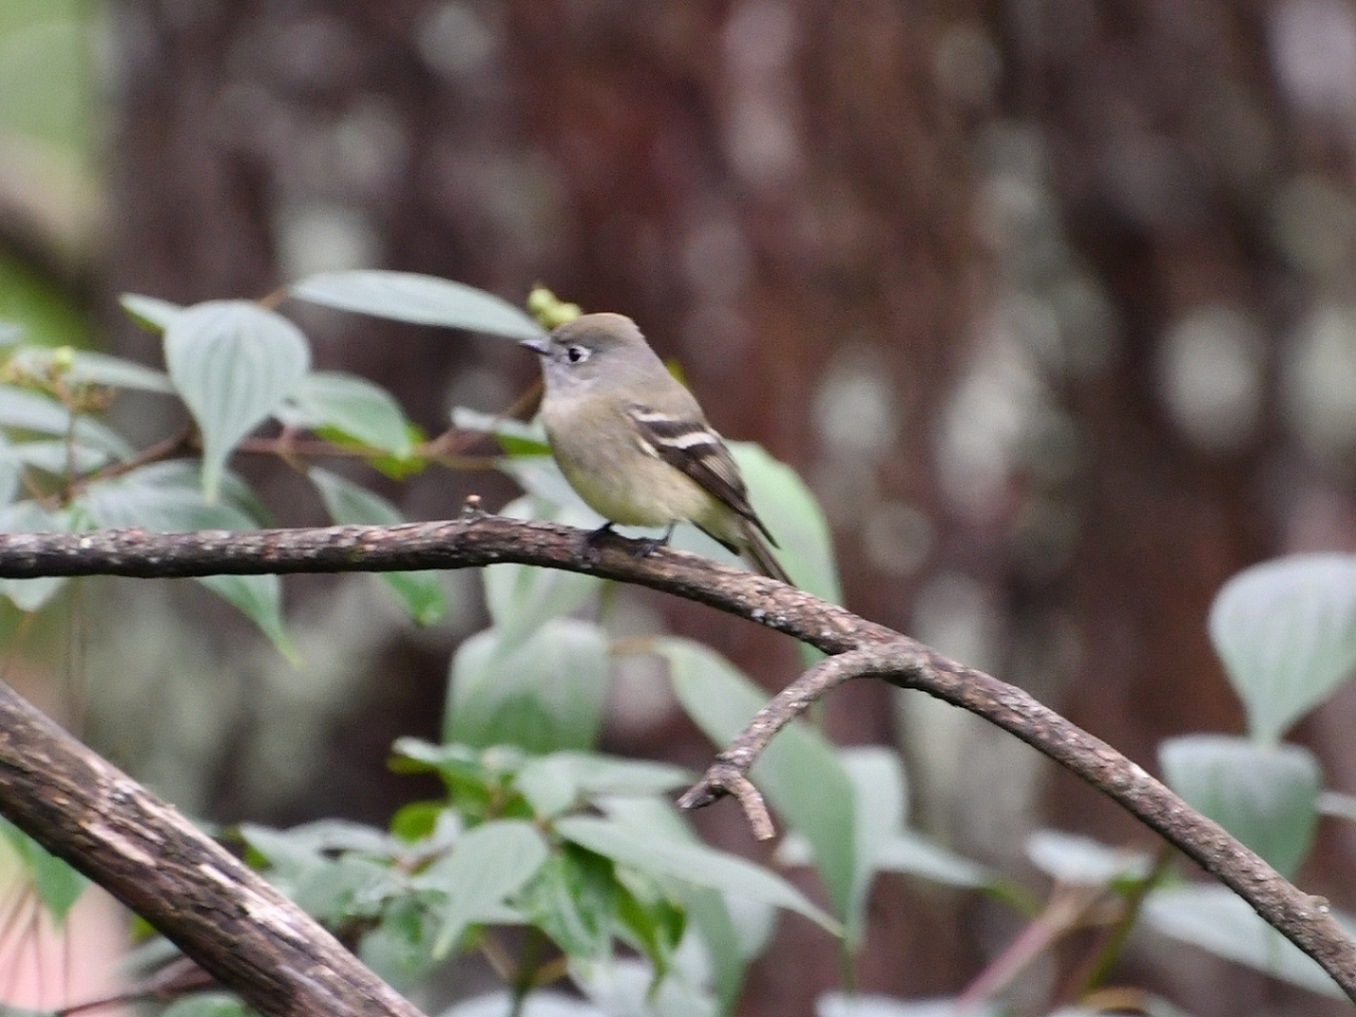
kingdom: Animalia
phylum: Chordata
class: Aves
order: Passeriformes
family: Tyrannidae
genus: Empidonax
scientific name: Empidonax hammondii
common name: Hammond's flycatcher
